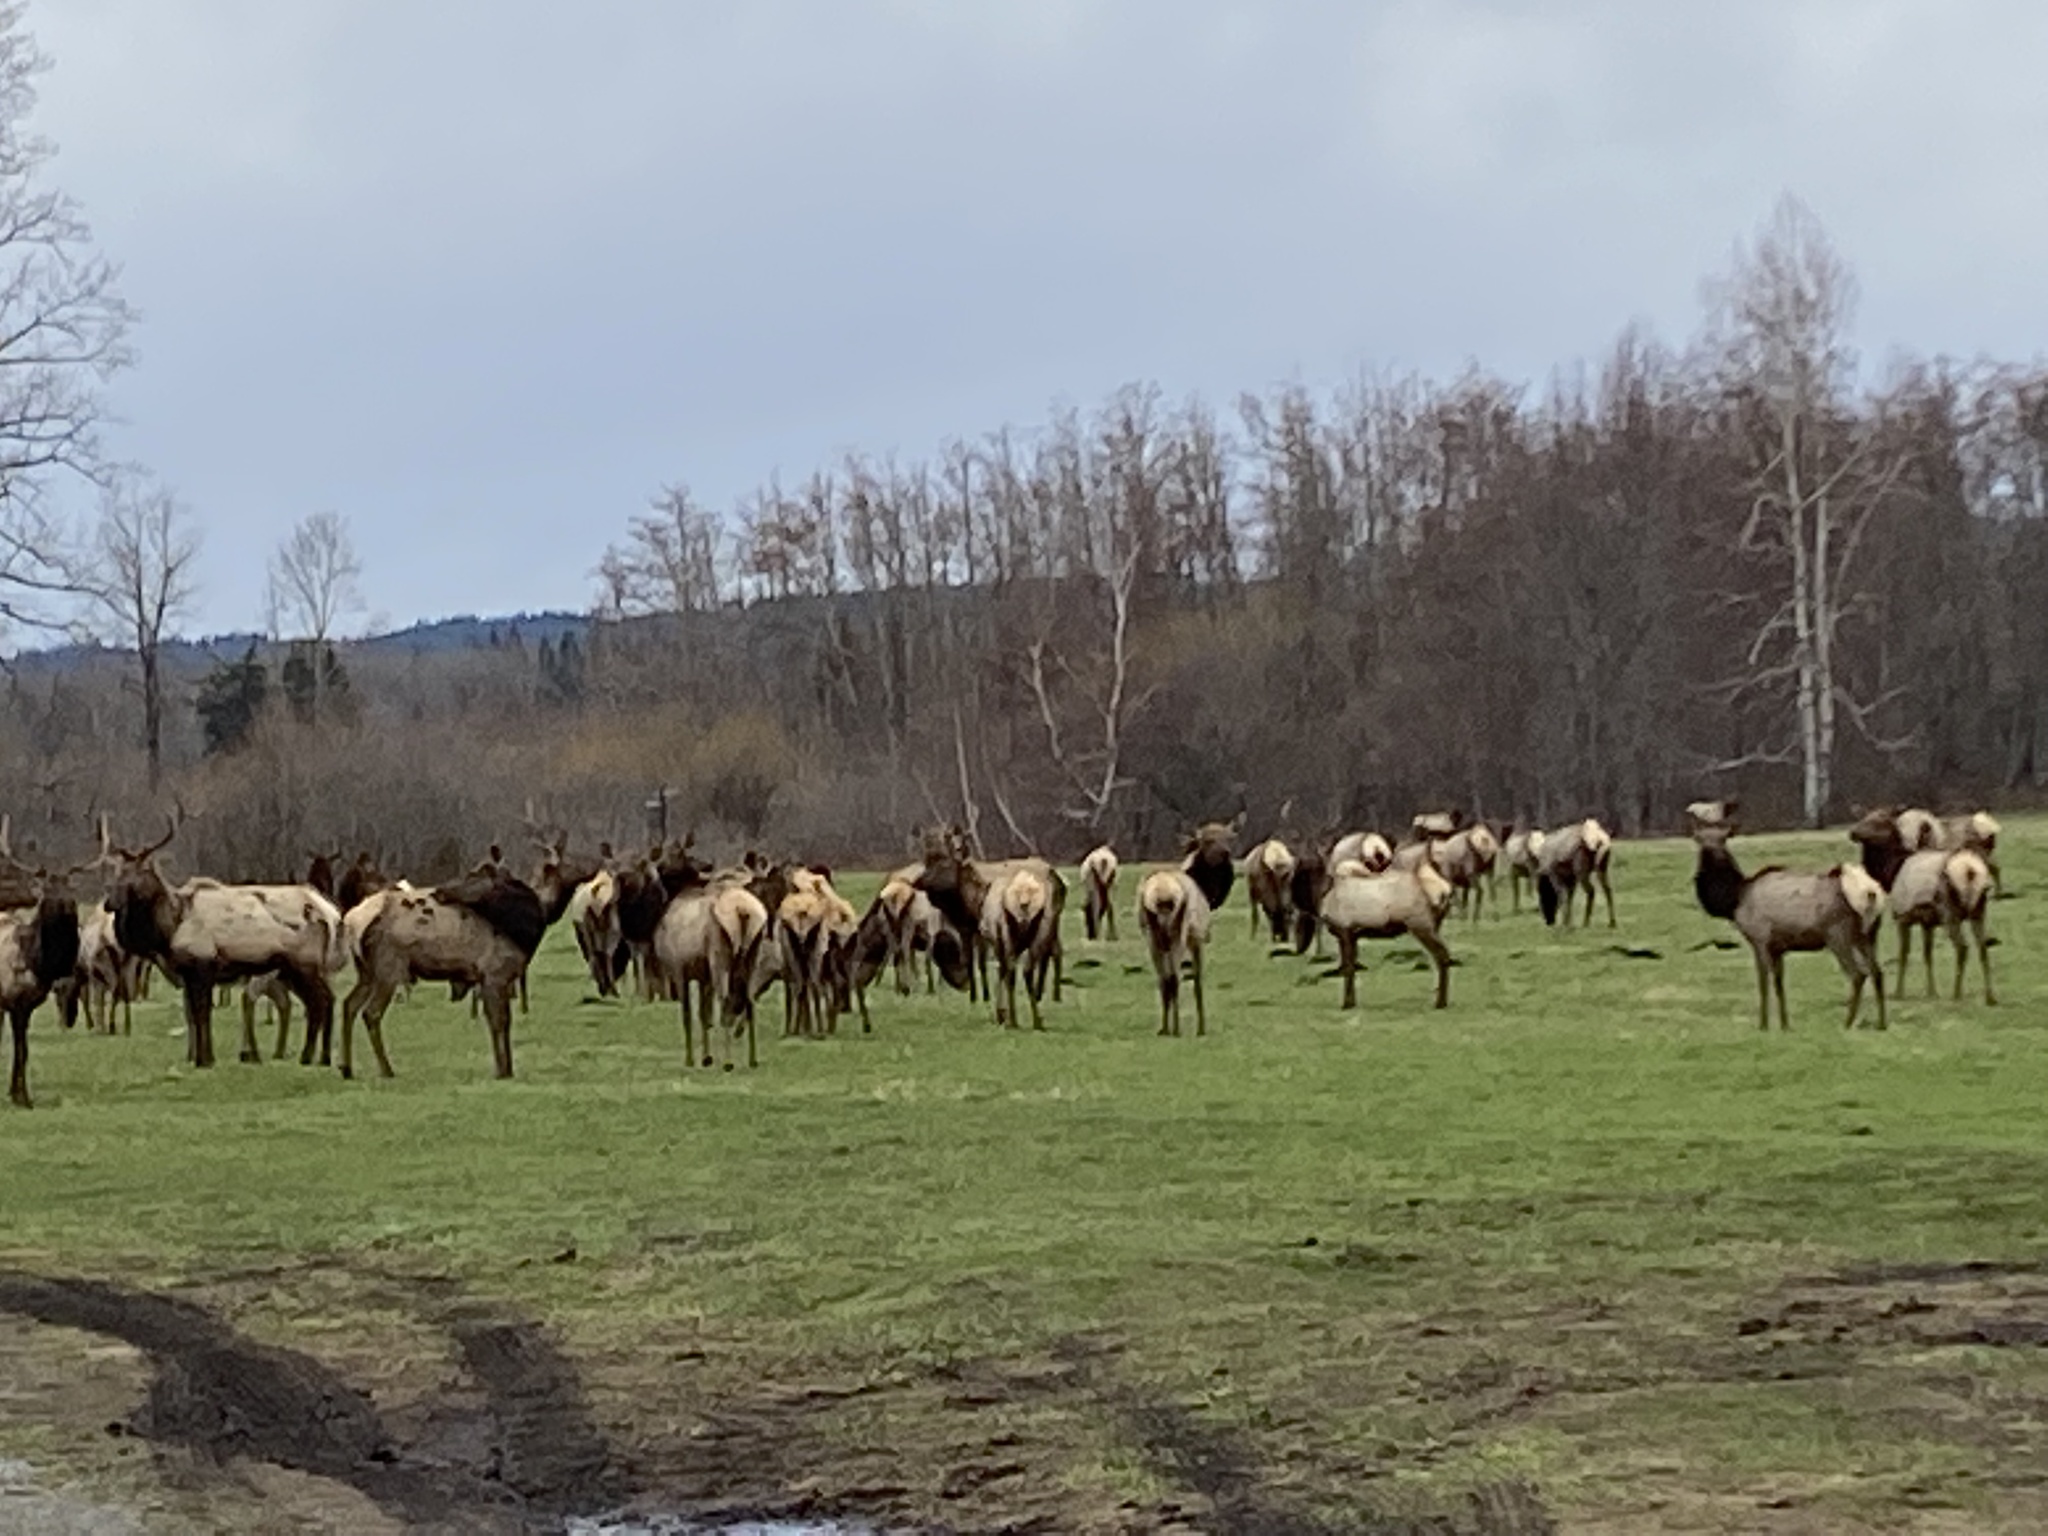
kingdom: Animalia
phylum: Chordata
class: Mammalia
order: Artiodactyla
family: Cervidae
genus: Cervus
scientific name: Cervus elaphus
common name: Red deer
